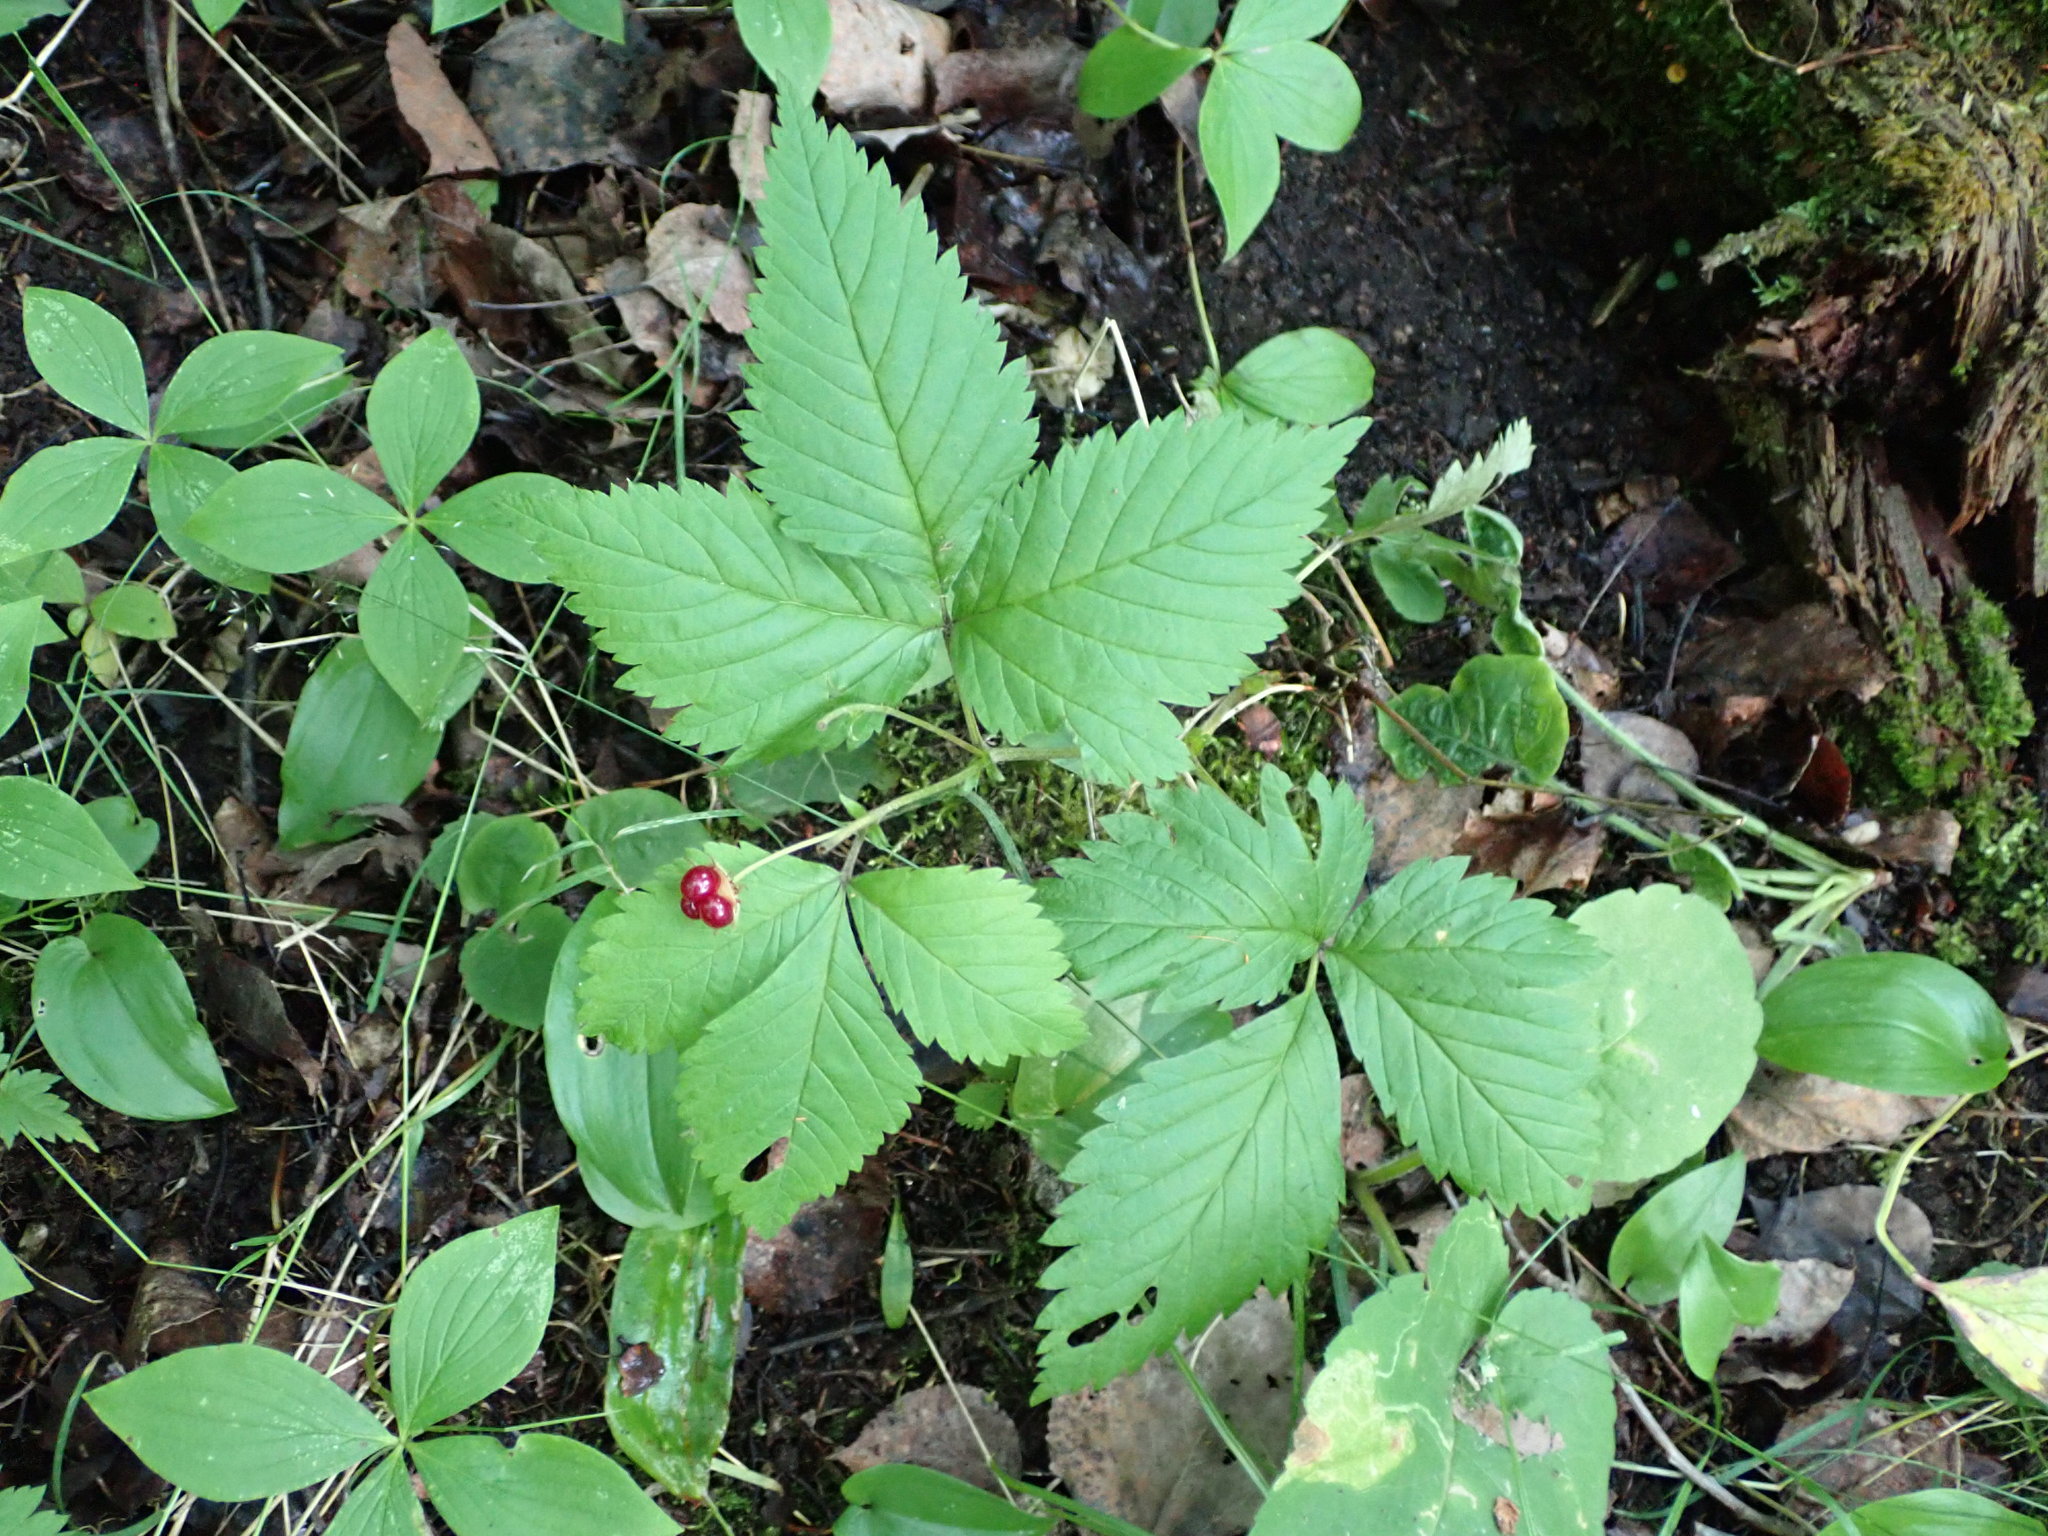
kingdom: Plantae
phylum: Tracheophyta
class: Magnoliopsida
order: Rosales
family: Rosaceae
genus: Rubus
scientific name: Rubus pubescens
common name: Dwarf raspberry
